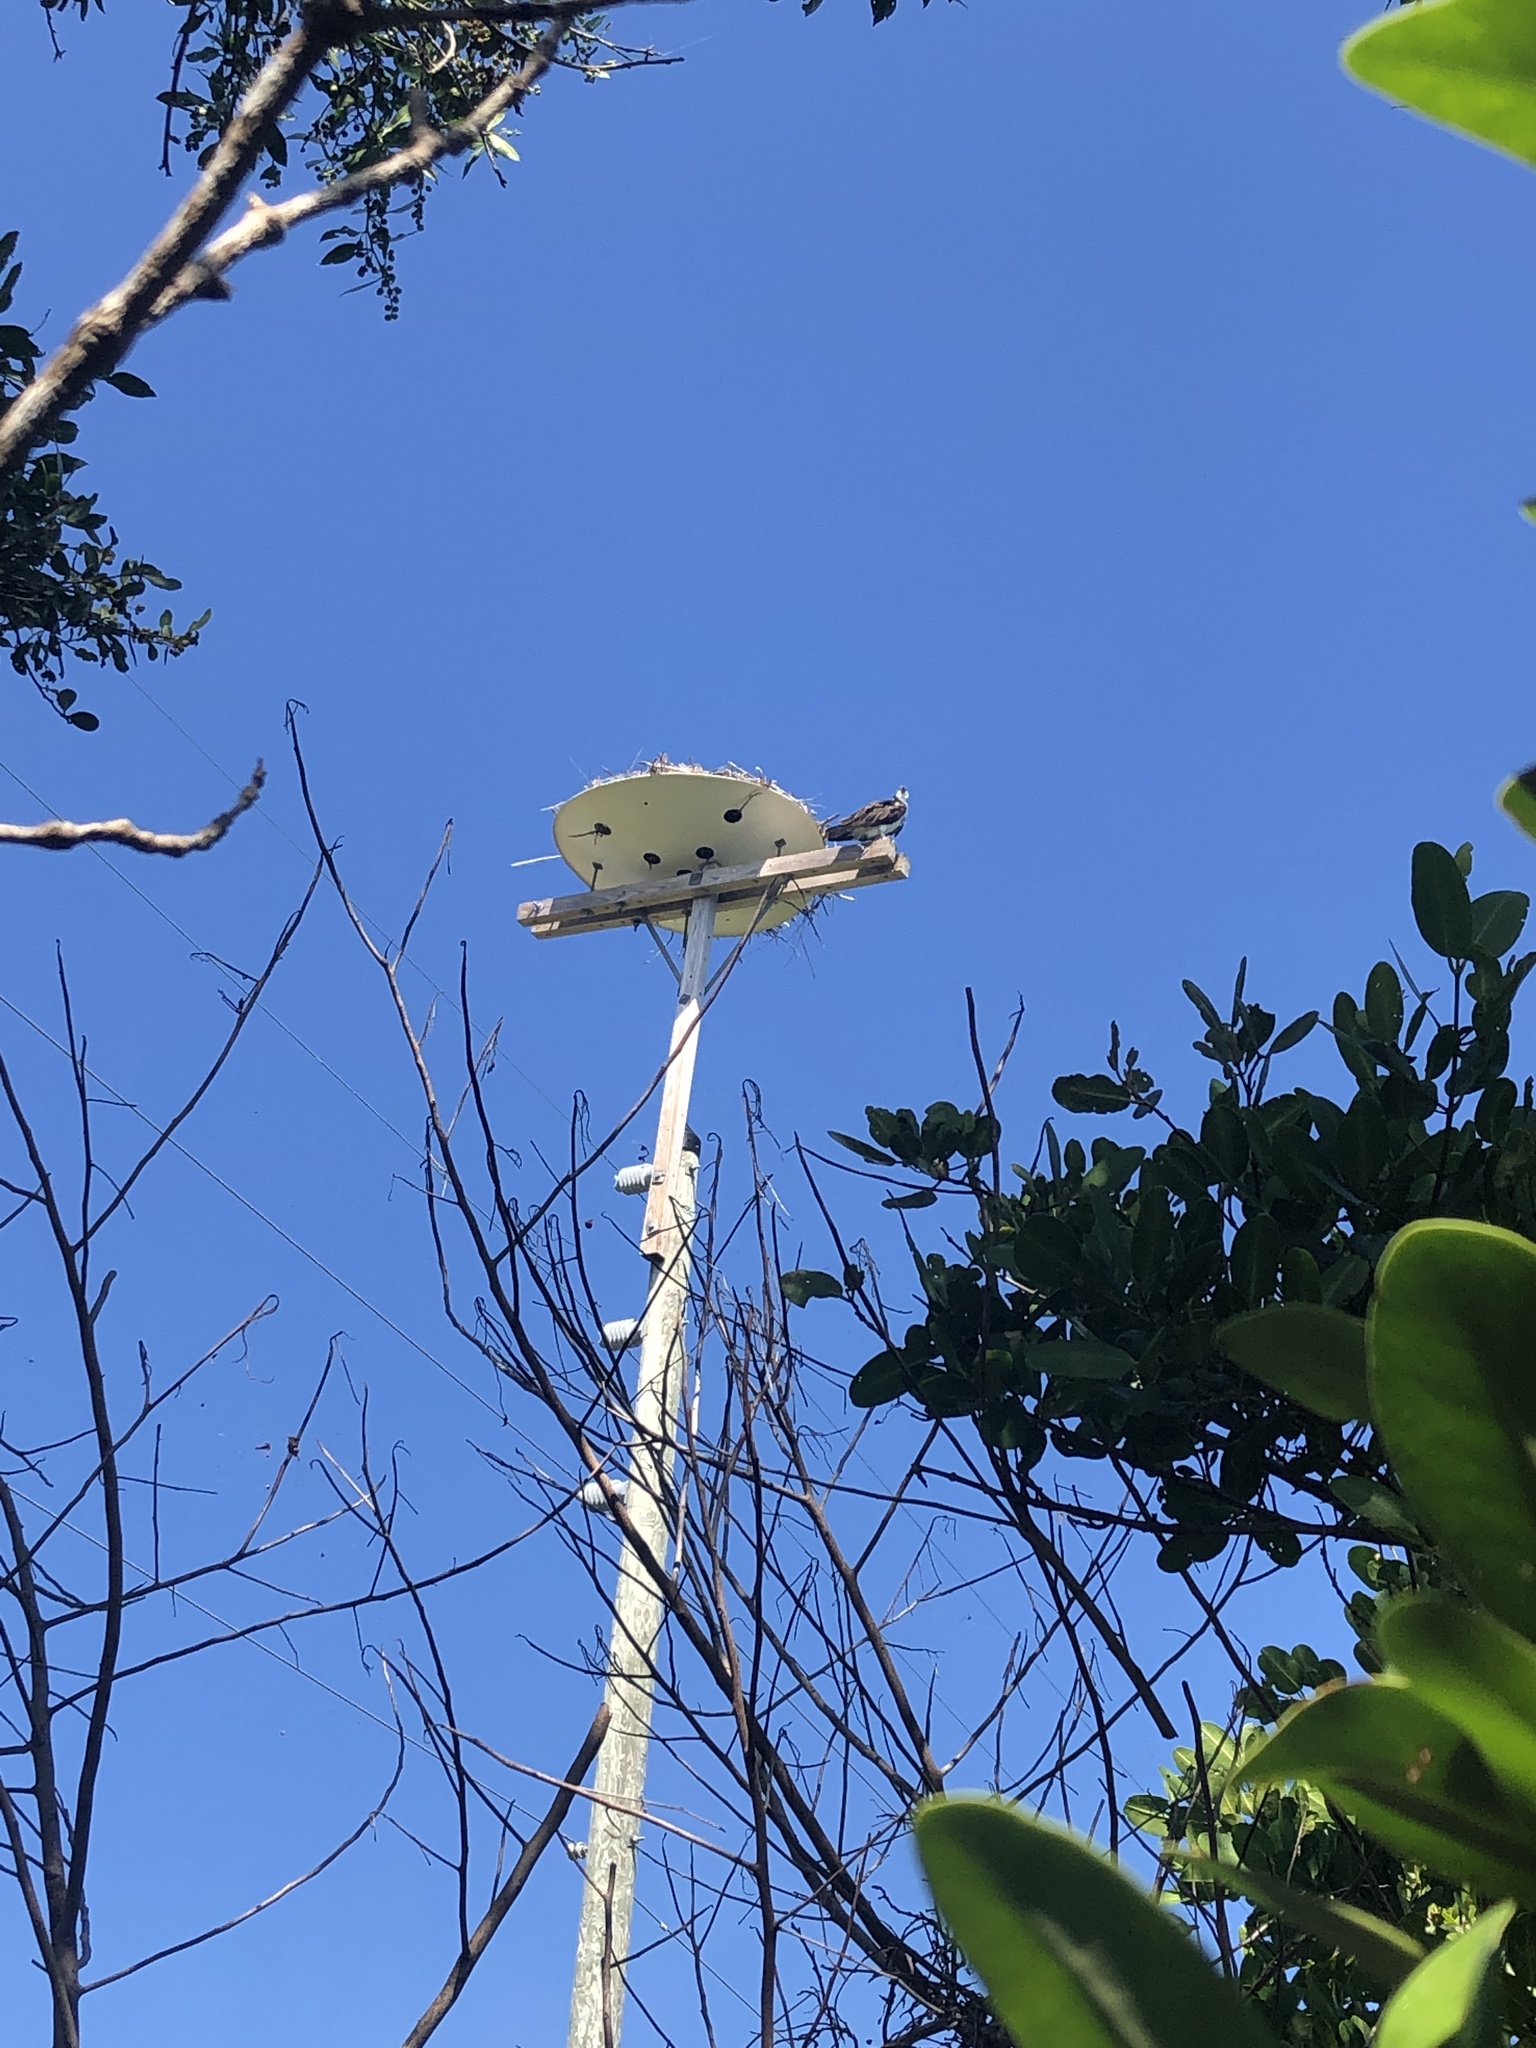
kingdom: Animalia
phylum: Chordata
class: Aves
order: Accipitriformes
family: Pandionidae
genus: Pandion
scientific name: Pandion haliaetus
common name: Osprey
